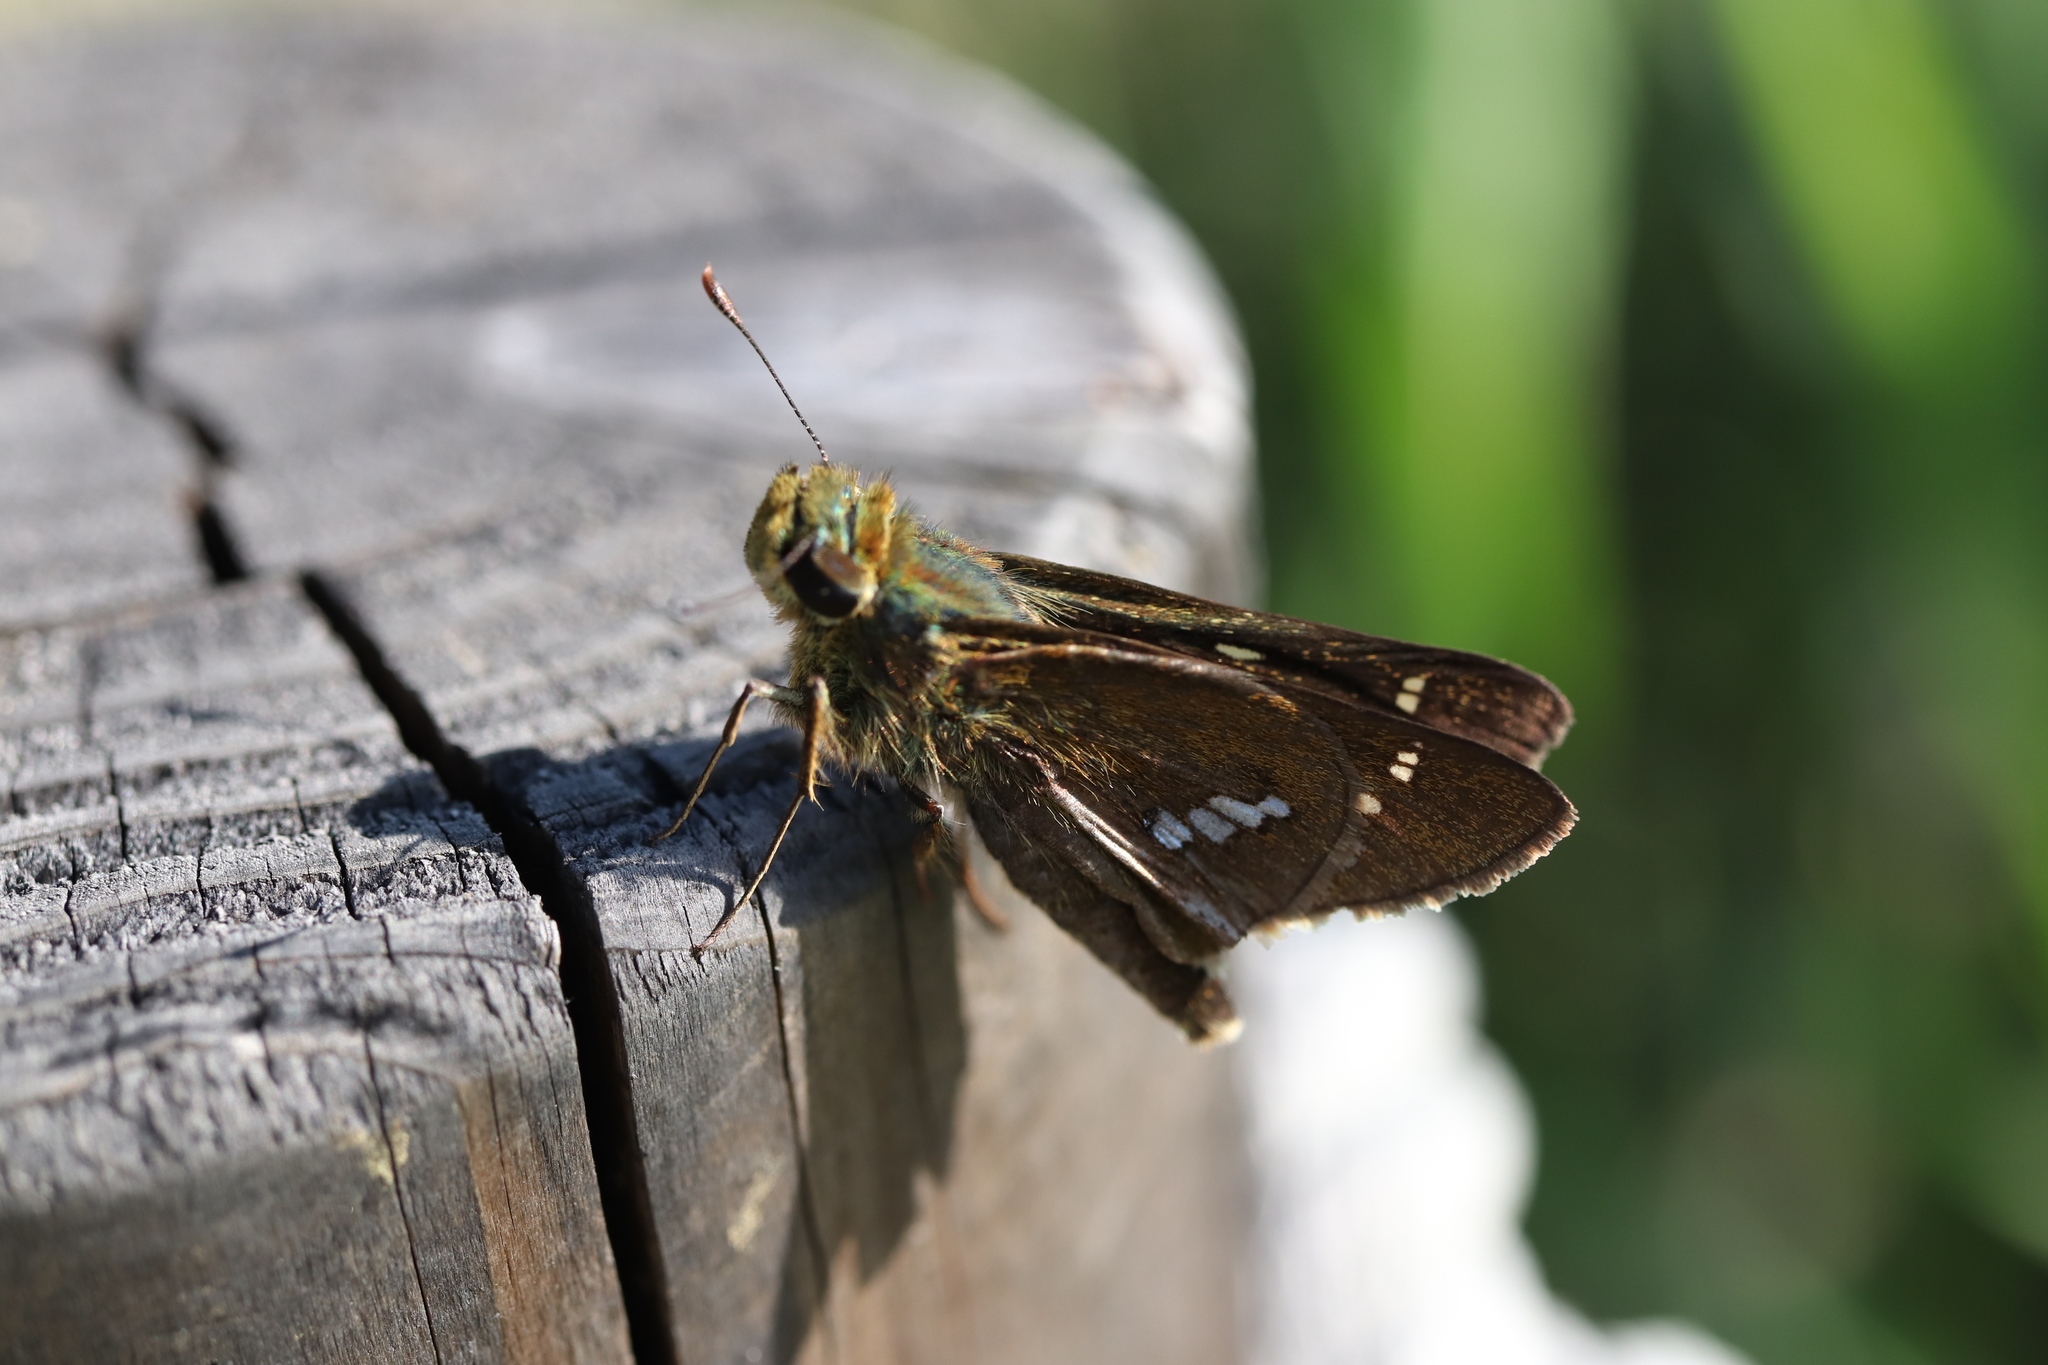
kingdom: Animalia
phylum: Arthropoda
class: Insecta
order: Lepidoptera
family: Hesperiidae
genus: Parnara
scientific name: Parnara guttatus
